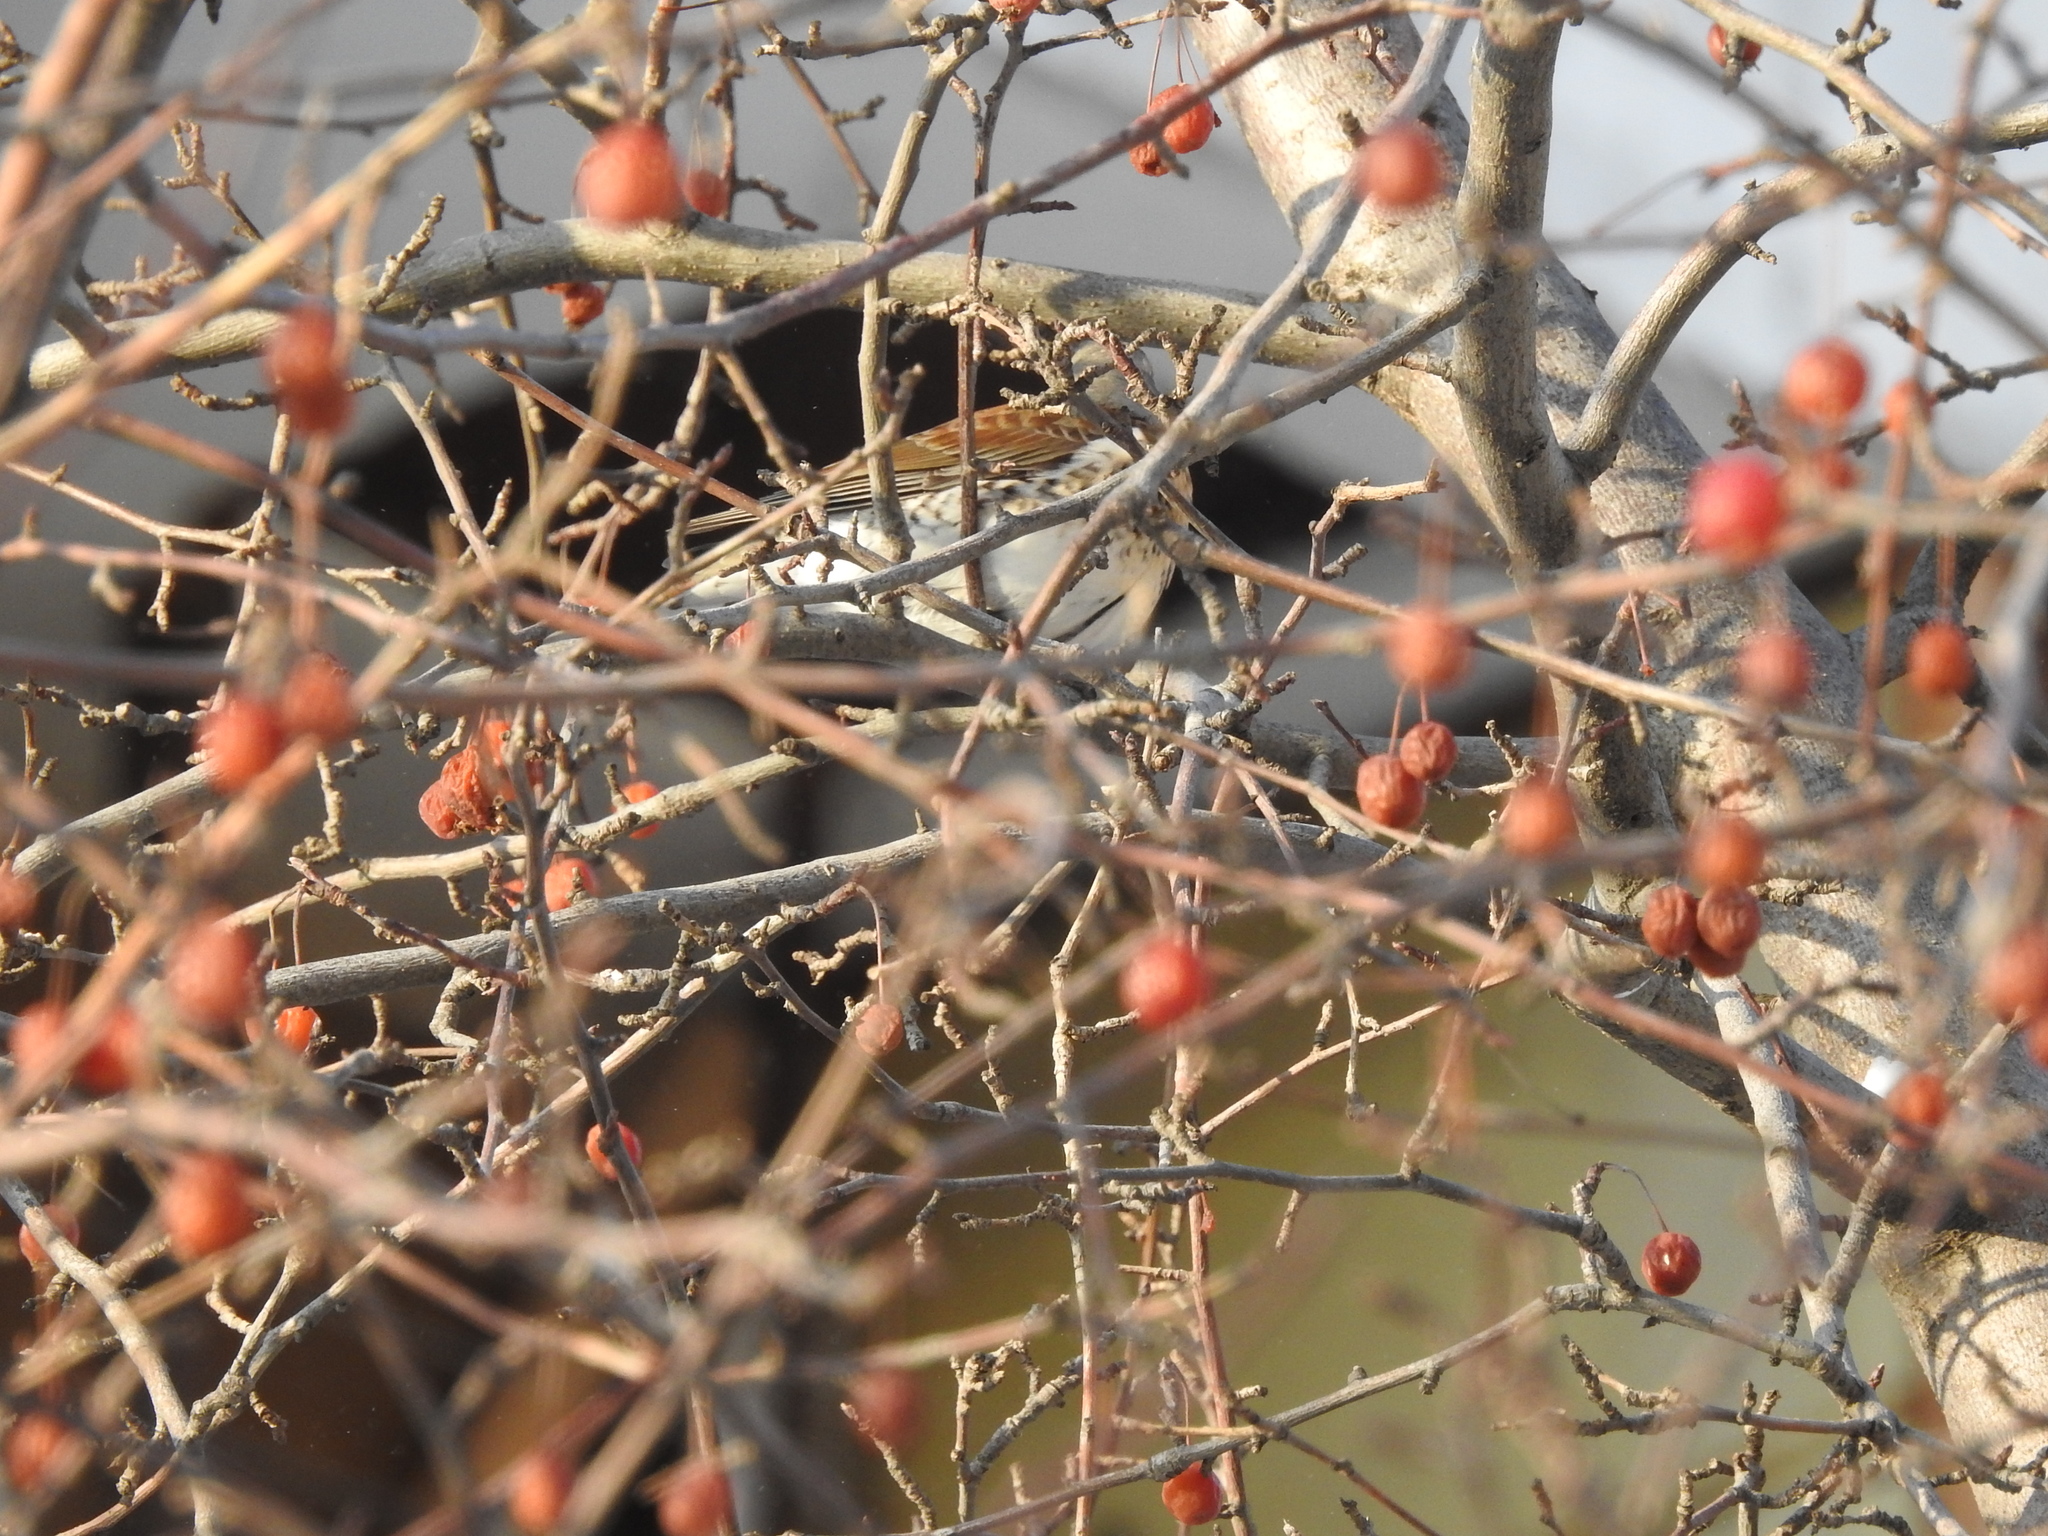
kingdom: Animalia
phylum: Chordata
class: Aves
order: Passeriformes
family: Turdidae
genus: Turdus
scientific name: Turdus pilaris
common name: Fieldfare
